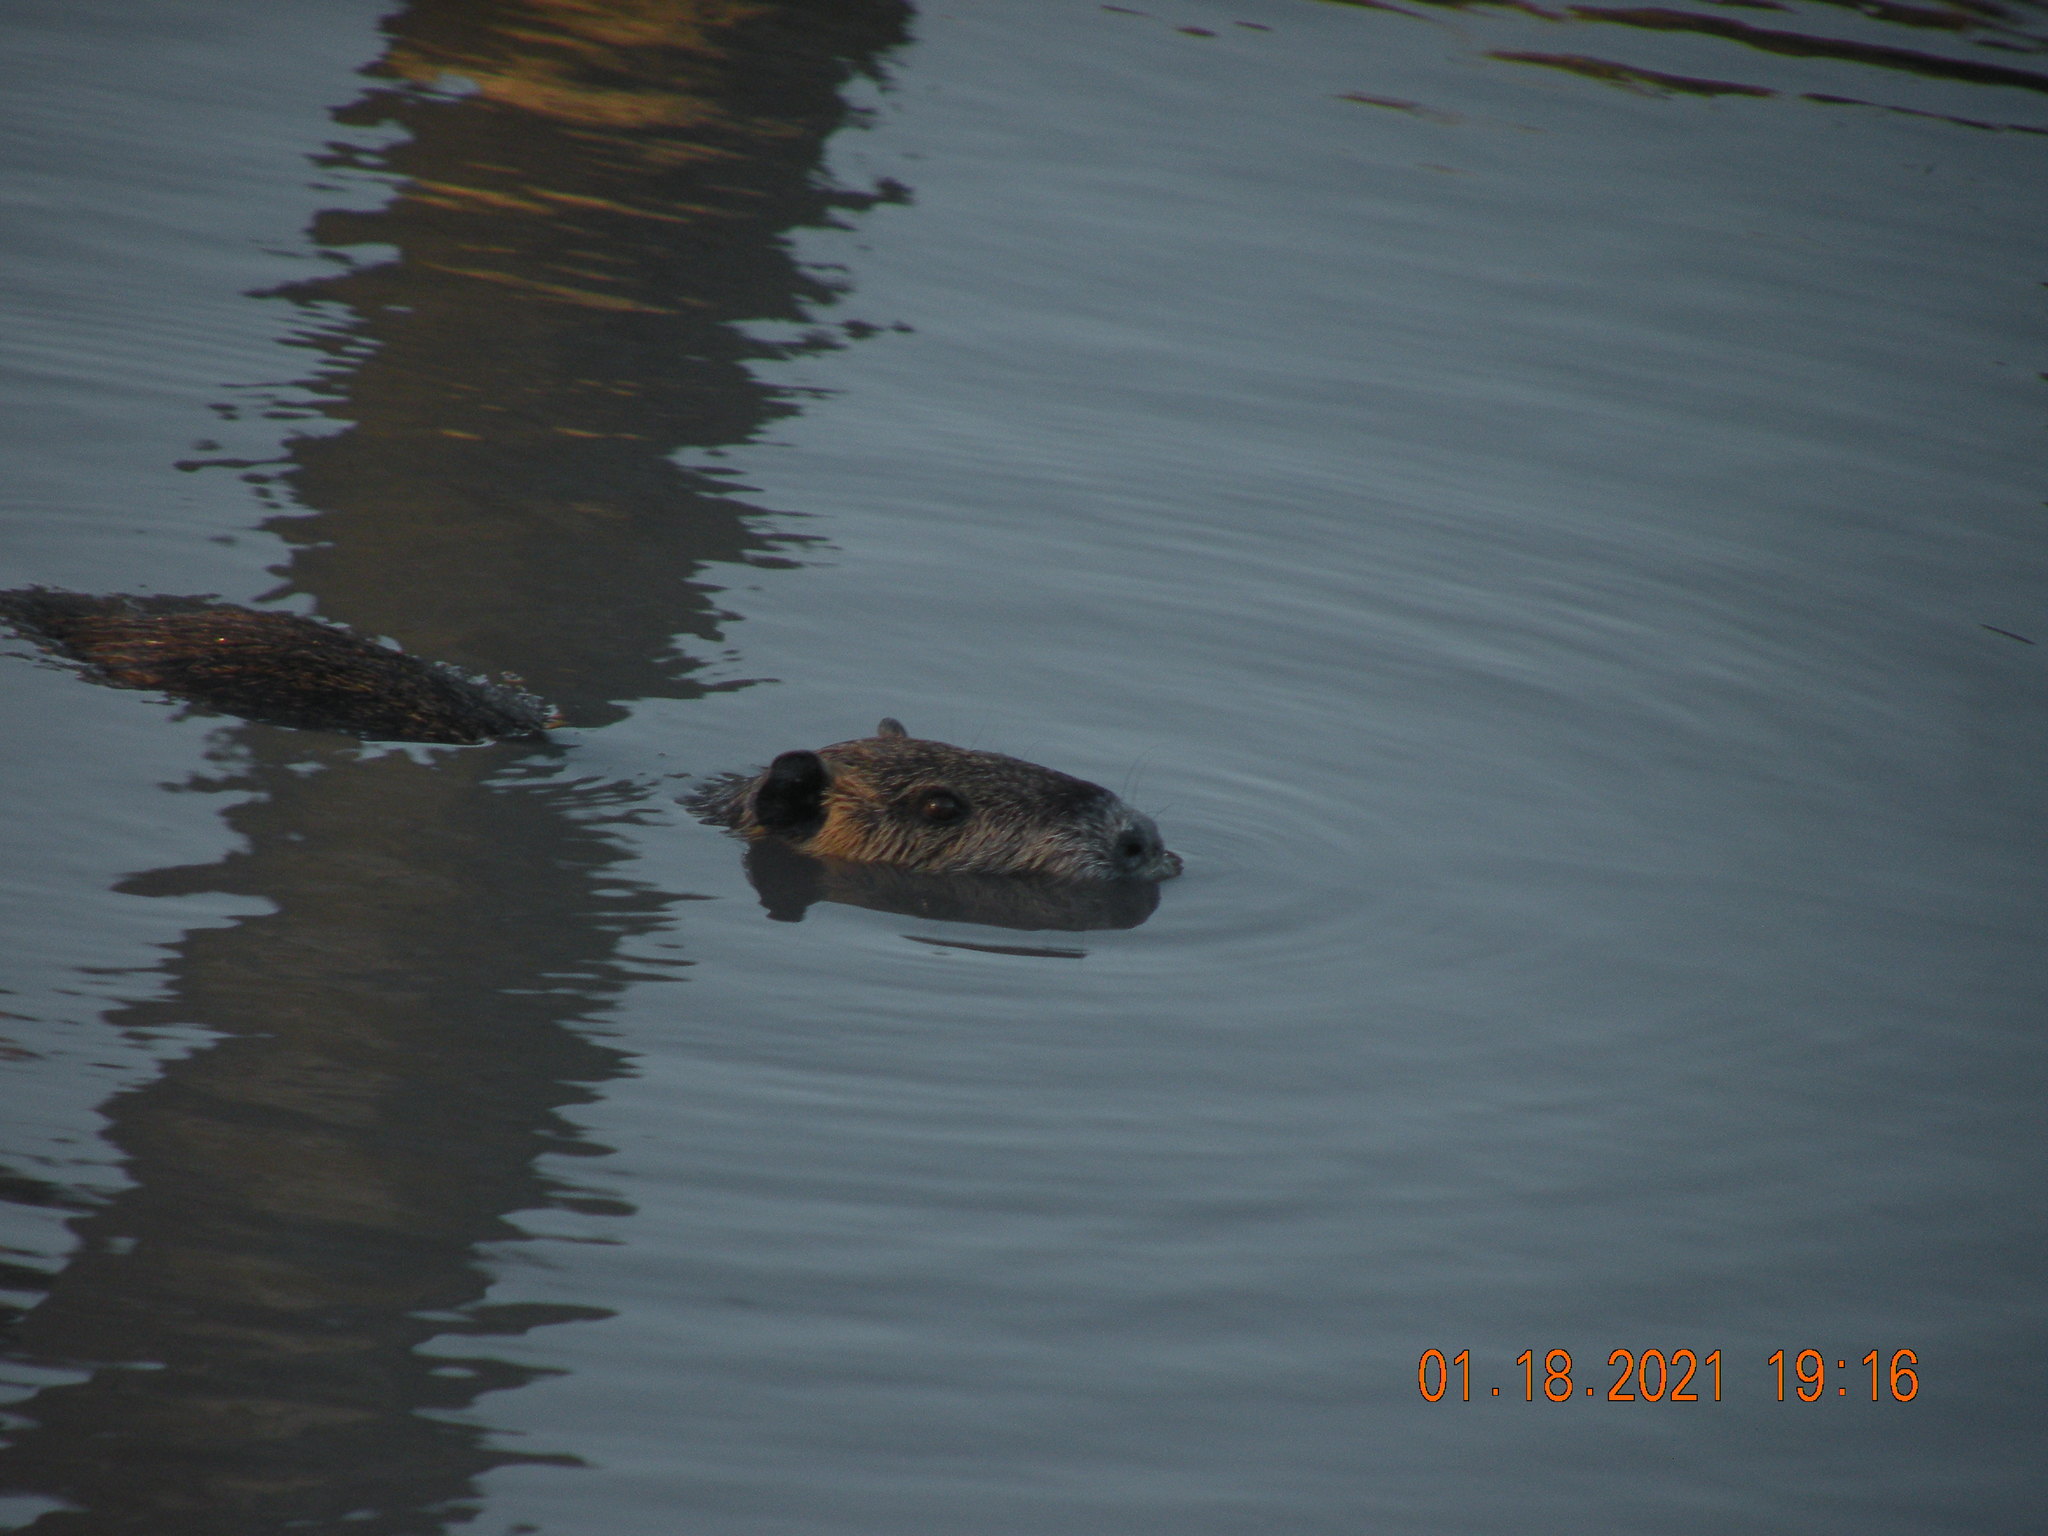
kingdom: Animalia
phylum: Chordata
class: Mammalia
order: Rodentia
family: Myocastoridae
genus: Myocastor
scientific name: Myocastor coypus
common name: Coypu
